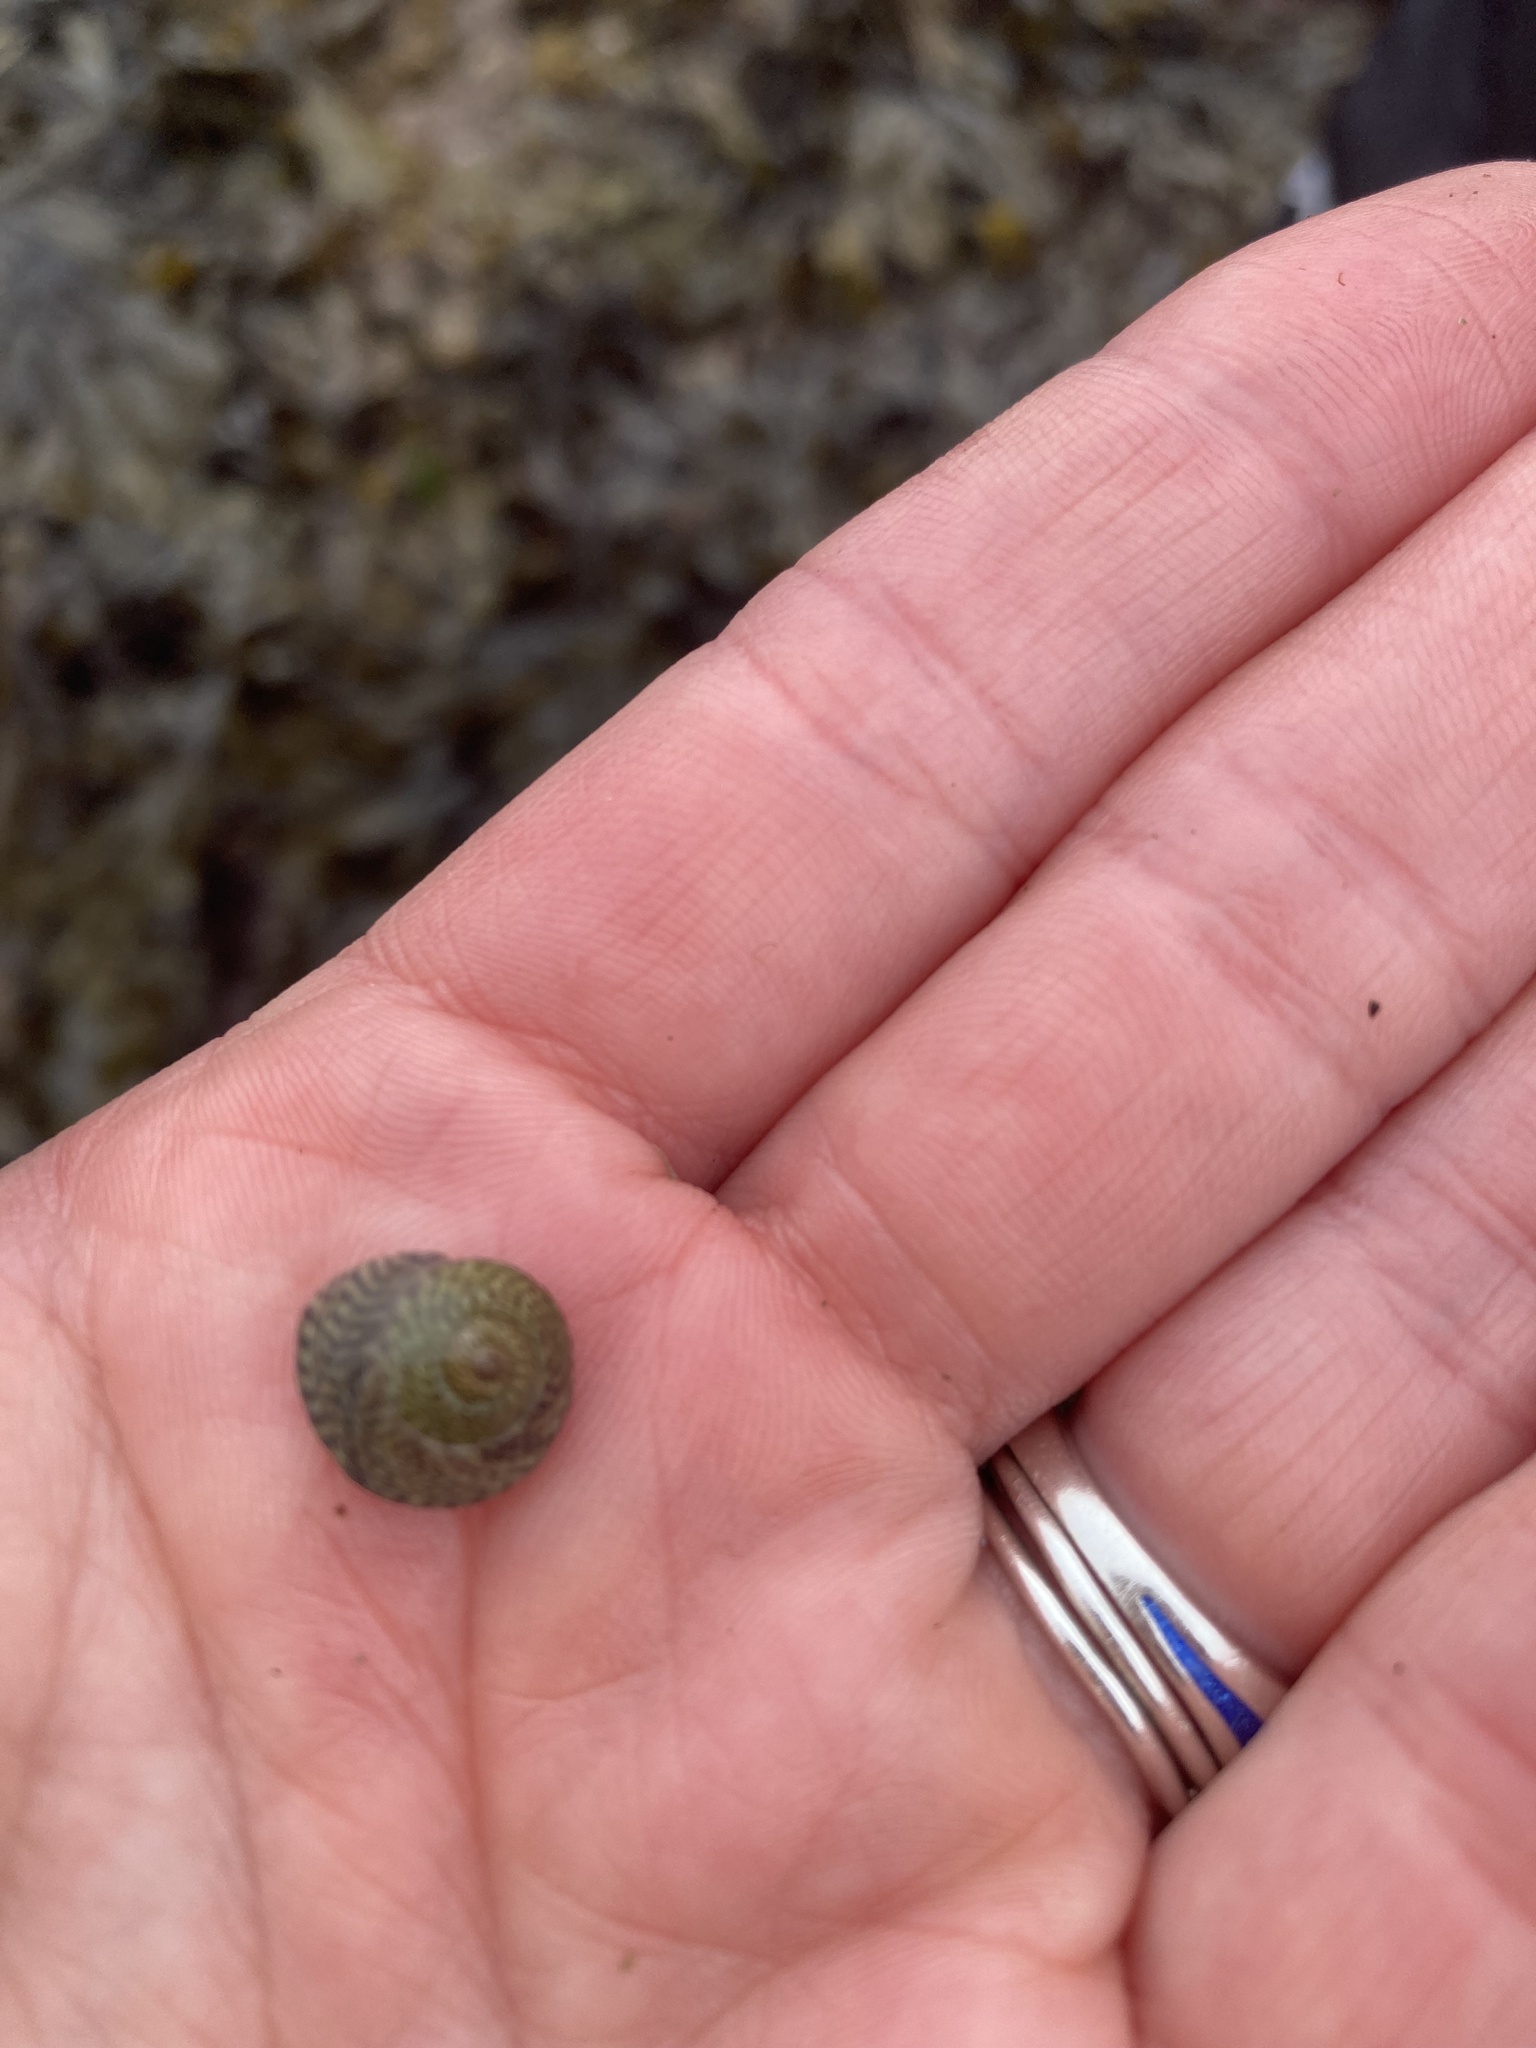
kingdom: Animalia
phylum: Mollusca
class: Gastropoda
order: Trochida
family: Trochidae
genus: Steromphala
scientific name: Steromphala cineraria
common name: Grey top shell
